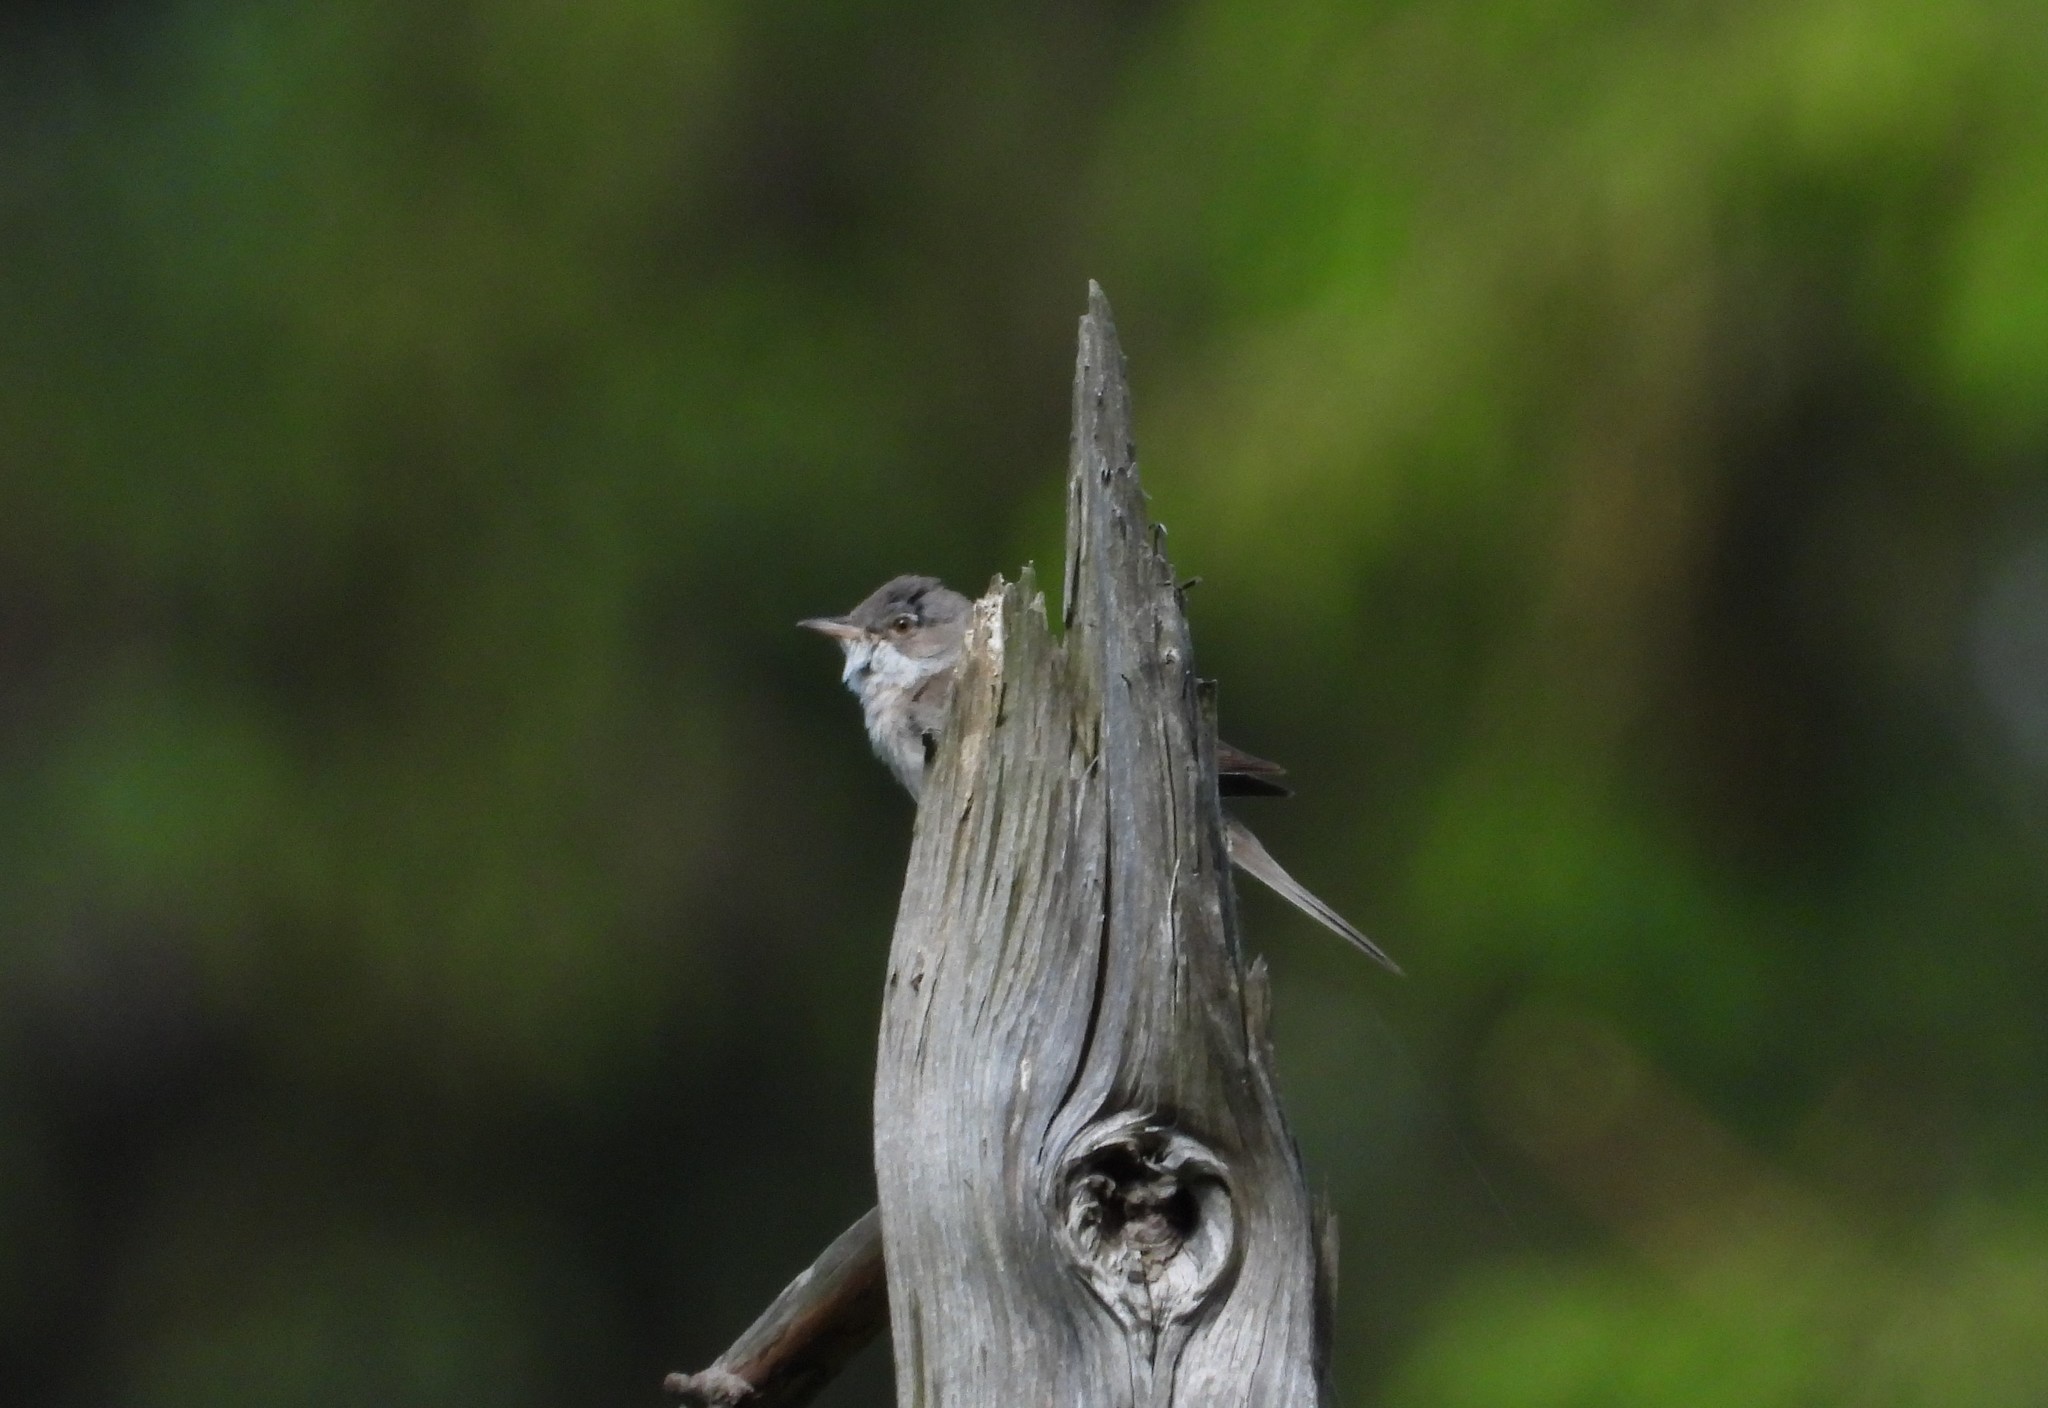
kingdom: Animalia
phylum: Chordata
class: Aves
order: Passeriformes
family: Sylviidae
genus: Sylvia
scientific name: Sylvia communis
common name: Common whitethroat
